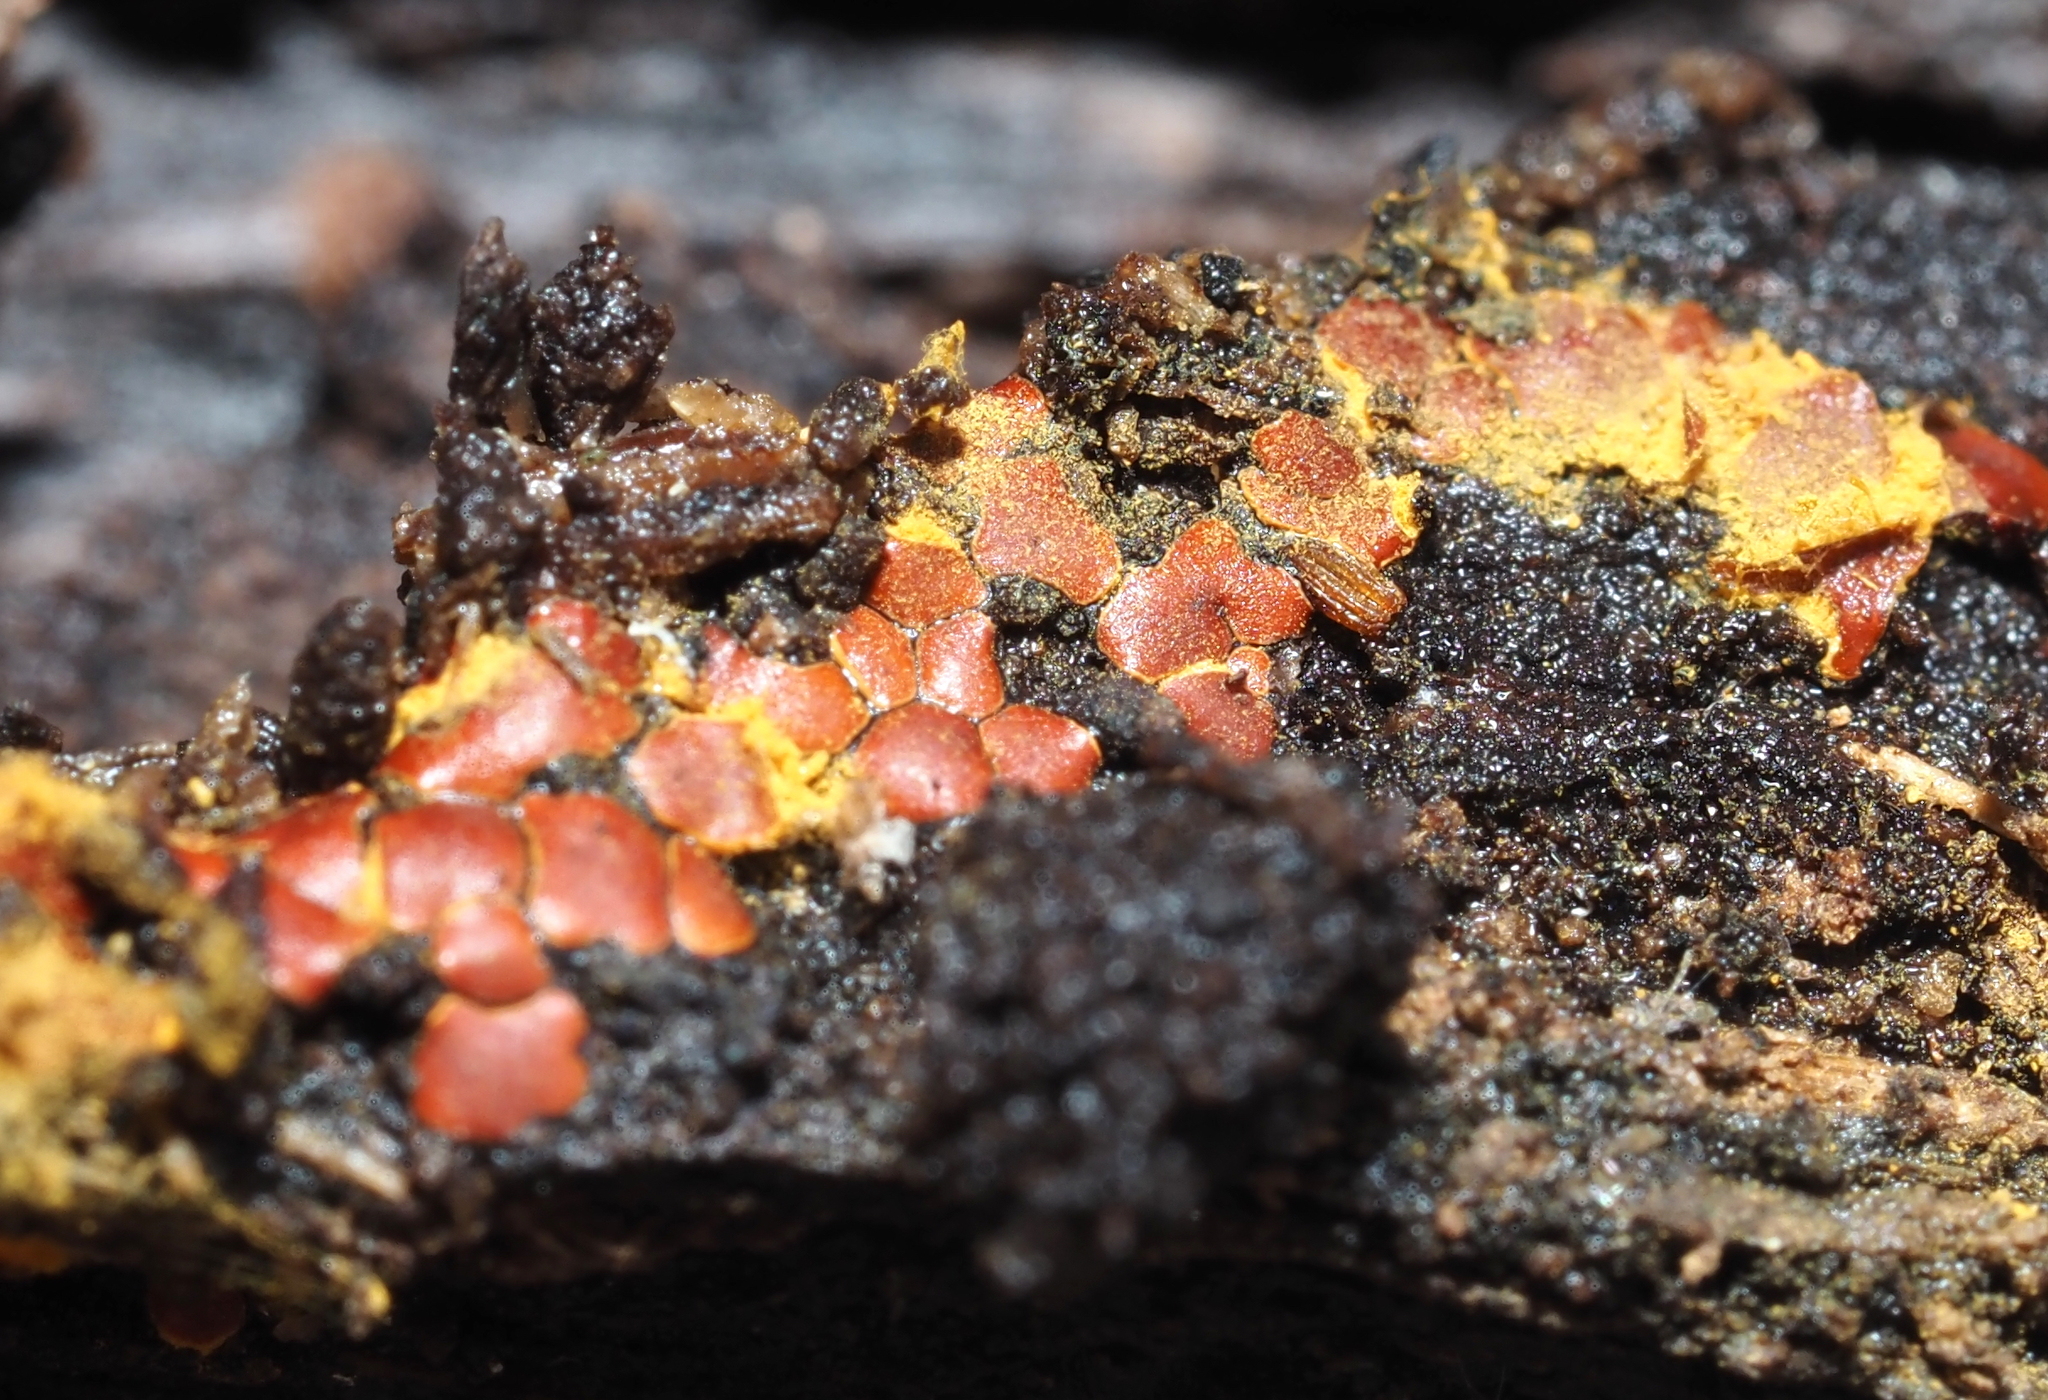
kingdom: Protozoa
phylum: Mycetozoa
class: Myxomycetes
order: Trichiales
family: Trichiaceae
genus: Perichaena
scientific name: Perichaena depressa
